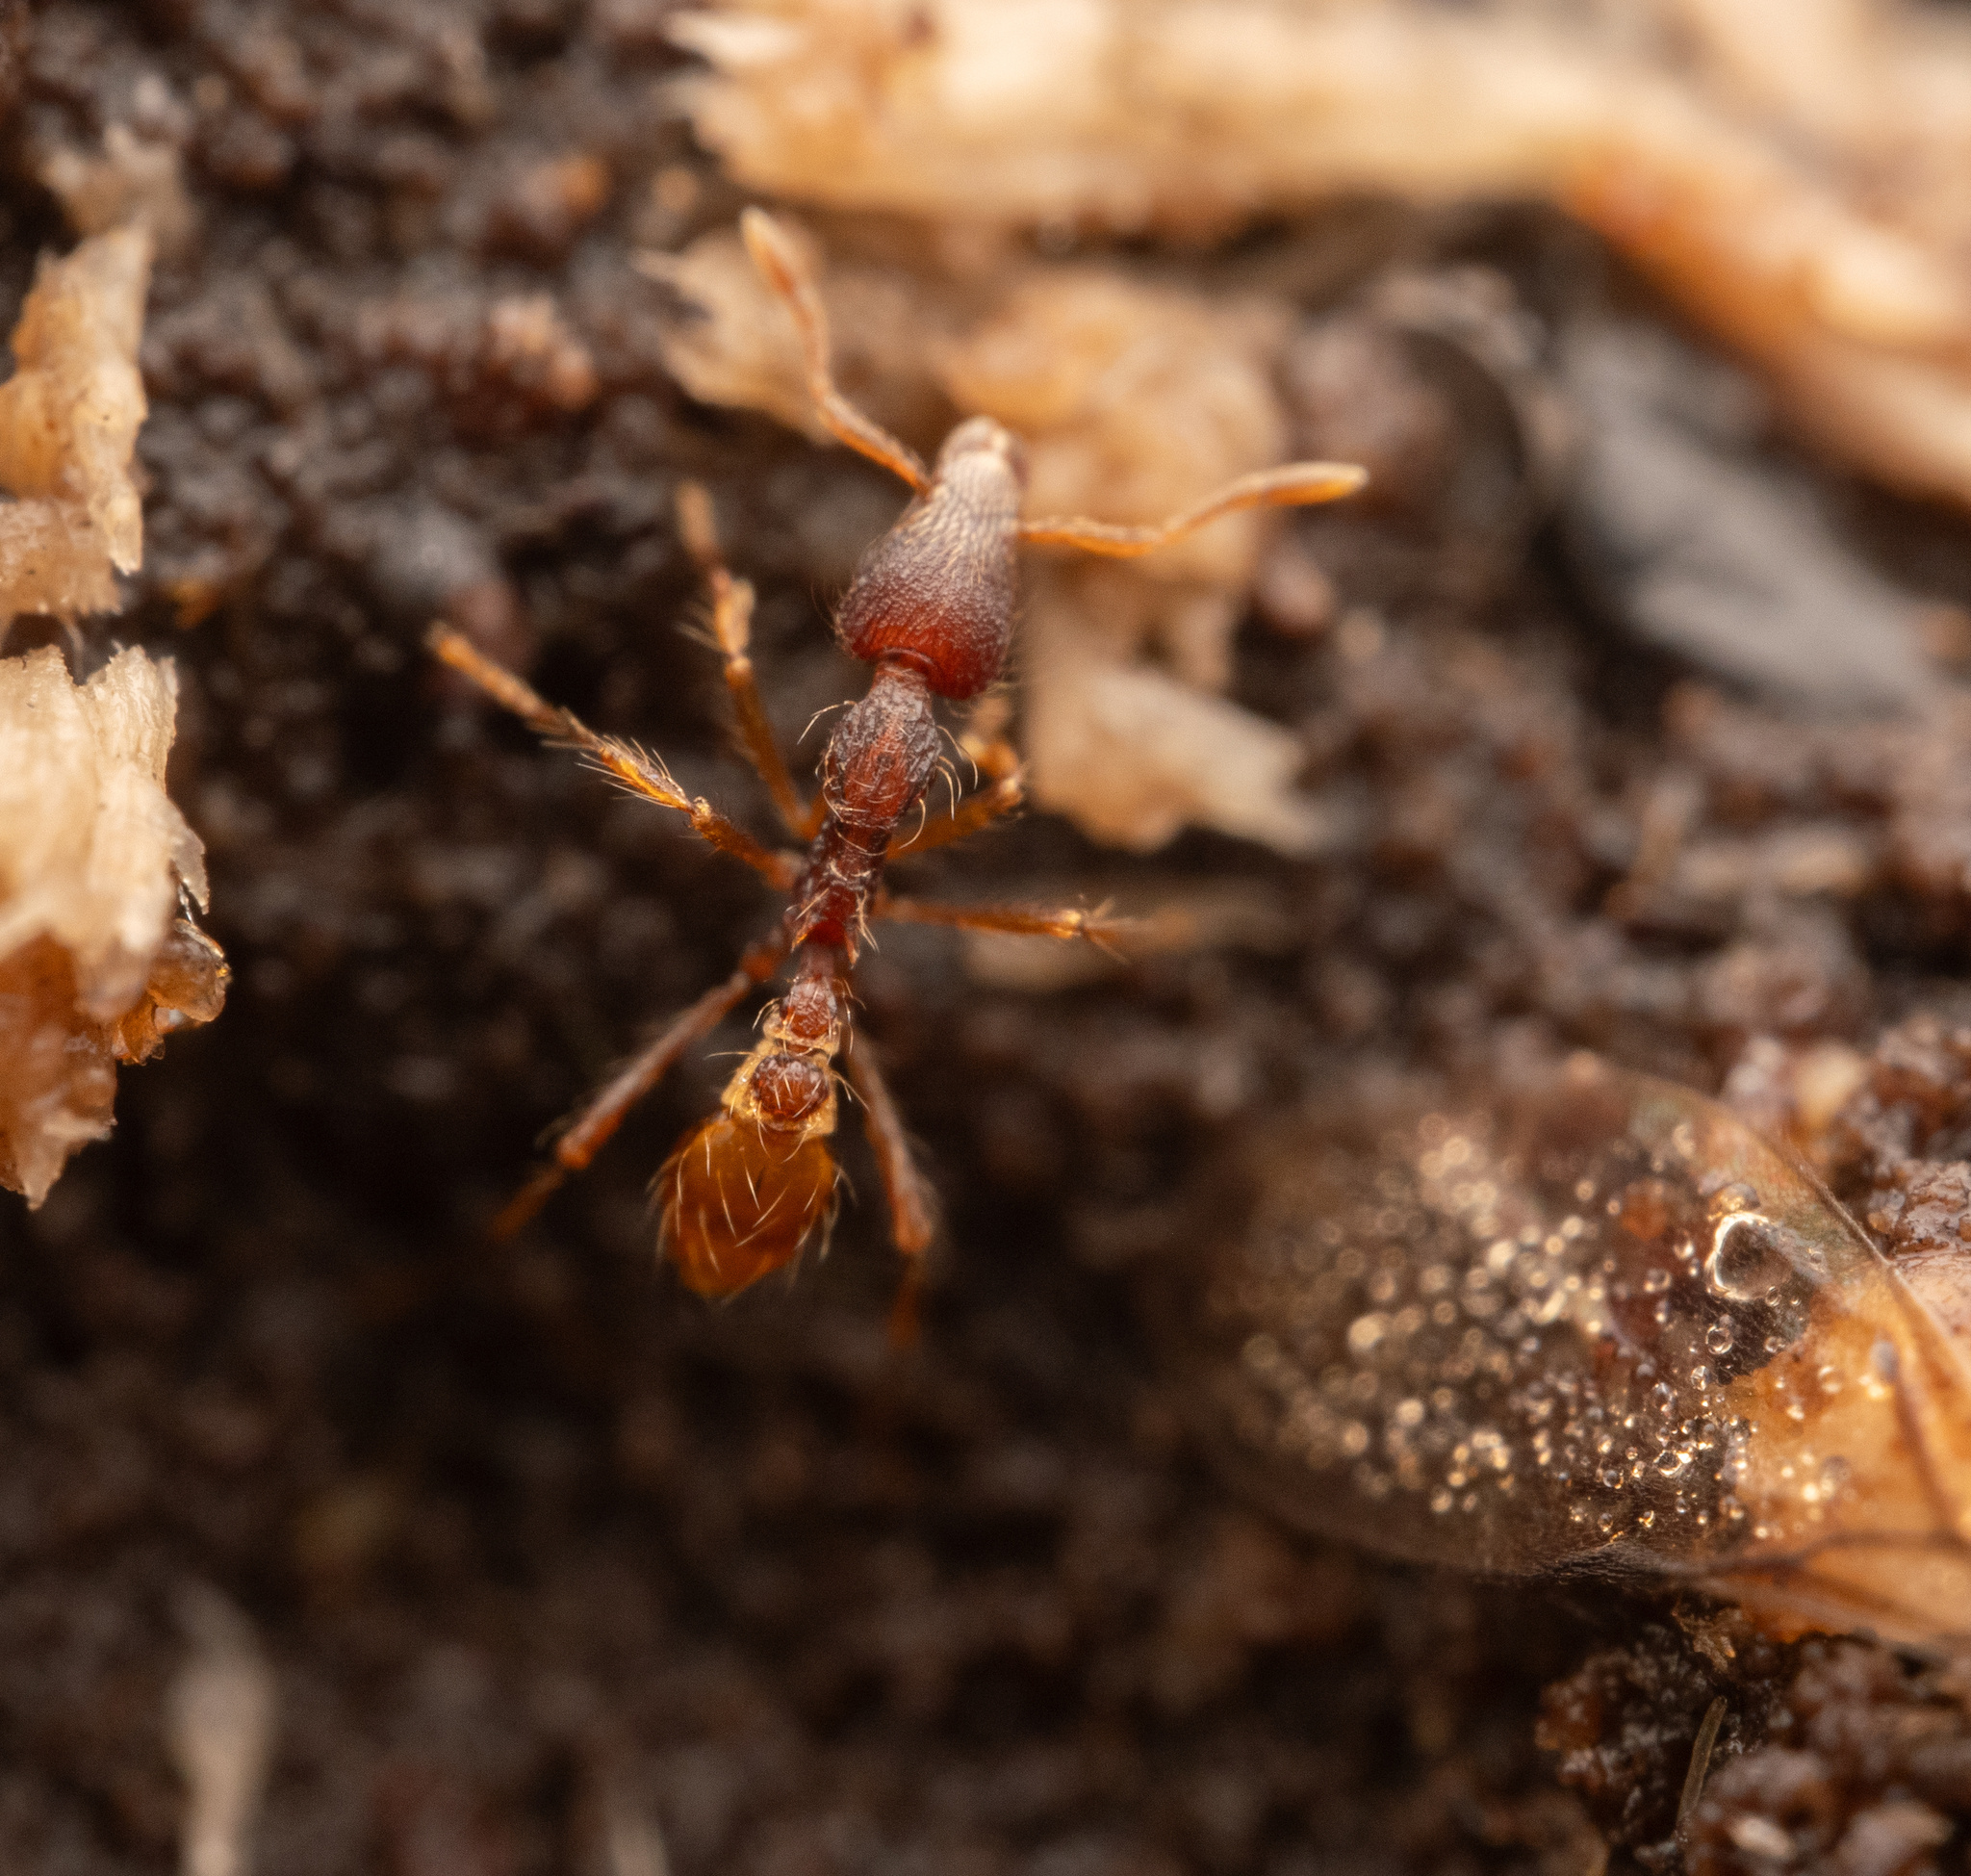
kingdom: Animalia
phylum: Arthropoda
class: Insecta
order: Hymenoptera
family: Formicidae
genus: Strumigenys
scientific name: Strumigenys
